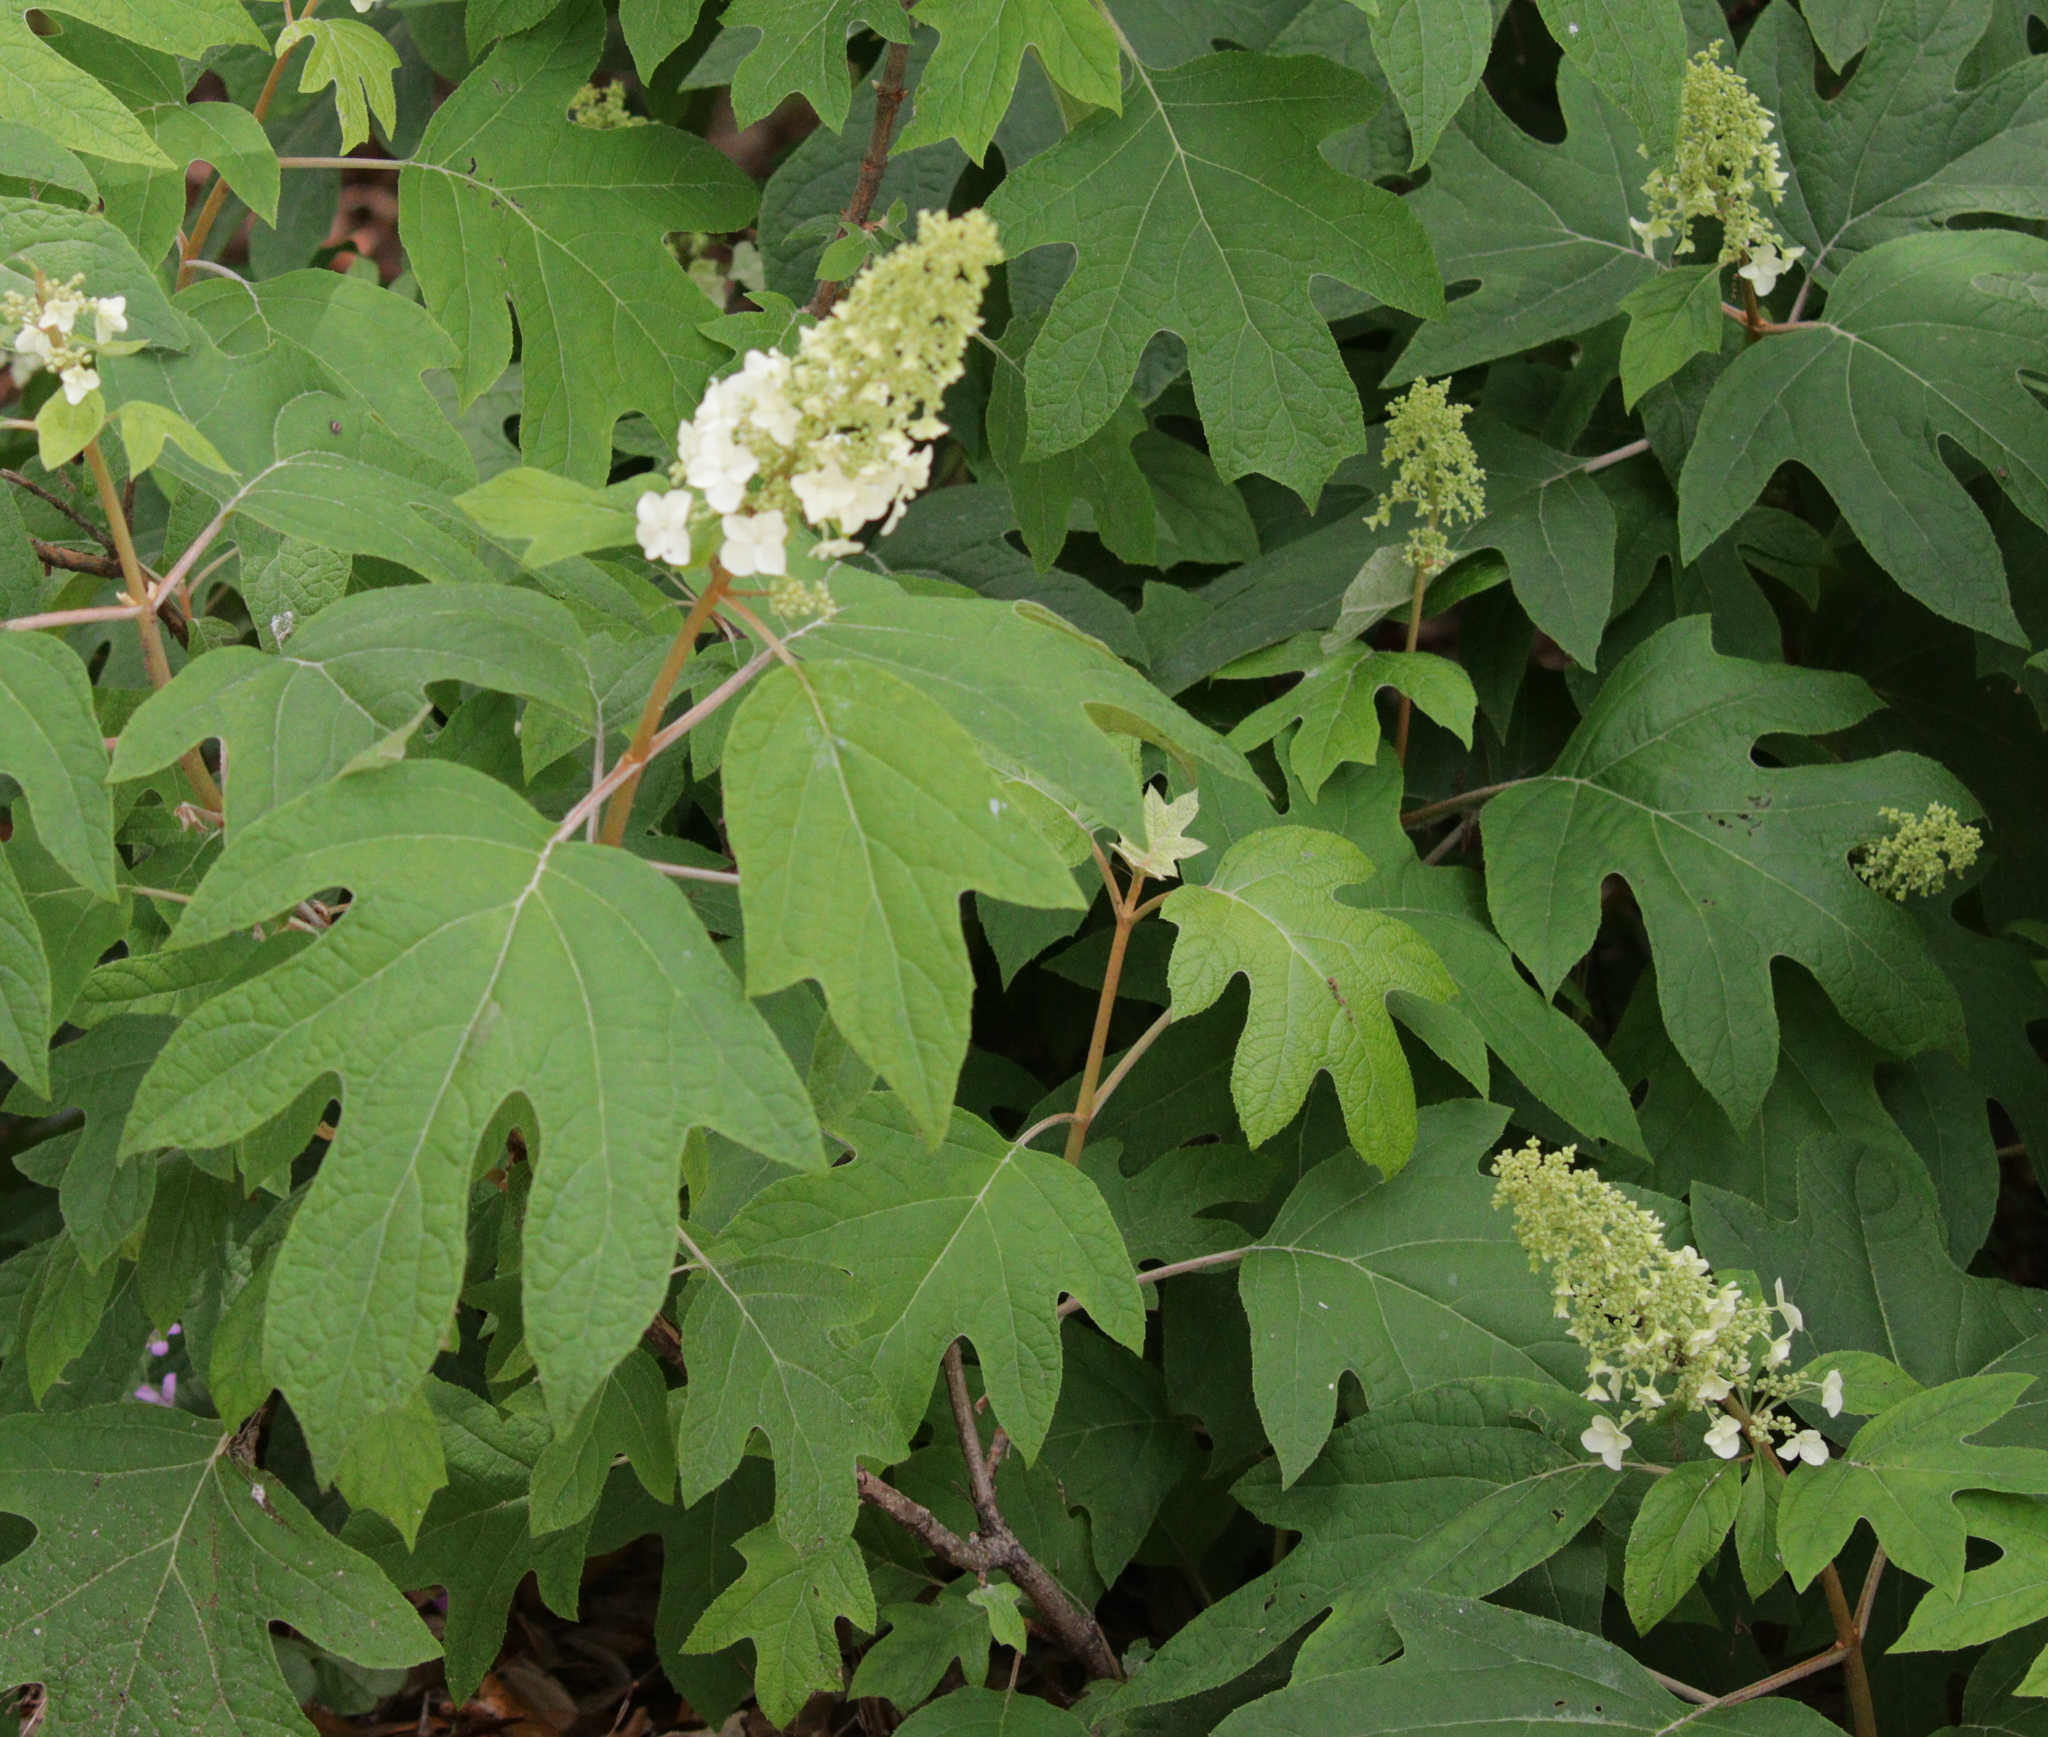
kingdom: Plantae
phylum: Tracheophyta
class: Magnoliopsida
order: Cornales
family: Hydrangeaceae
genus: Hydrangea
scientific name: Hydrangea quercifolia
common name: Oak-leaf hydrangea
